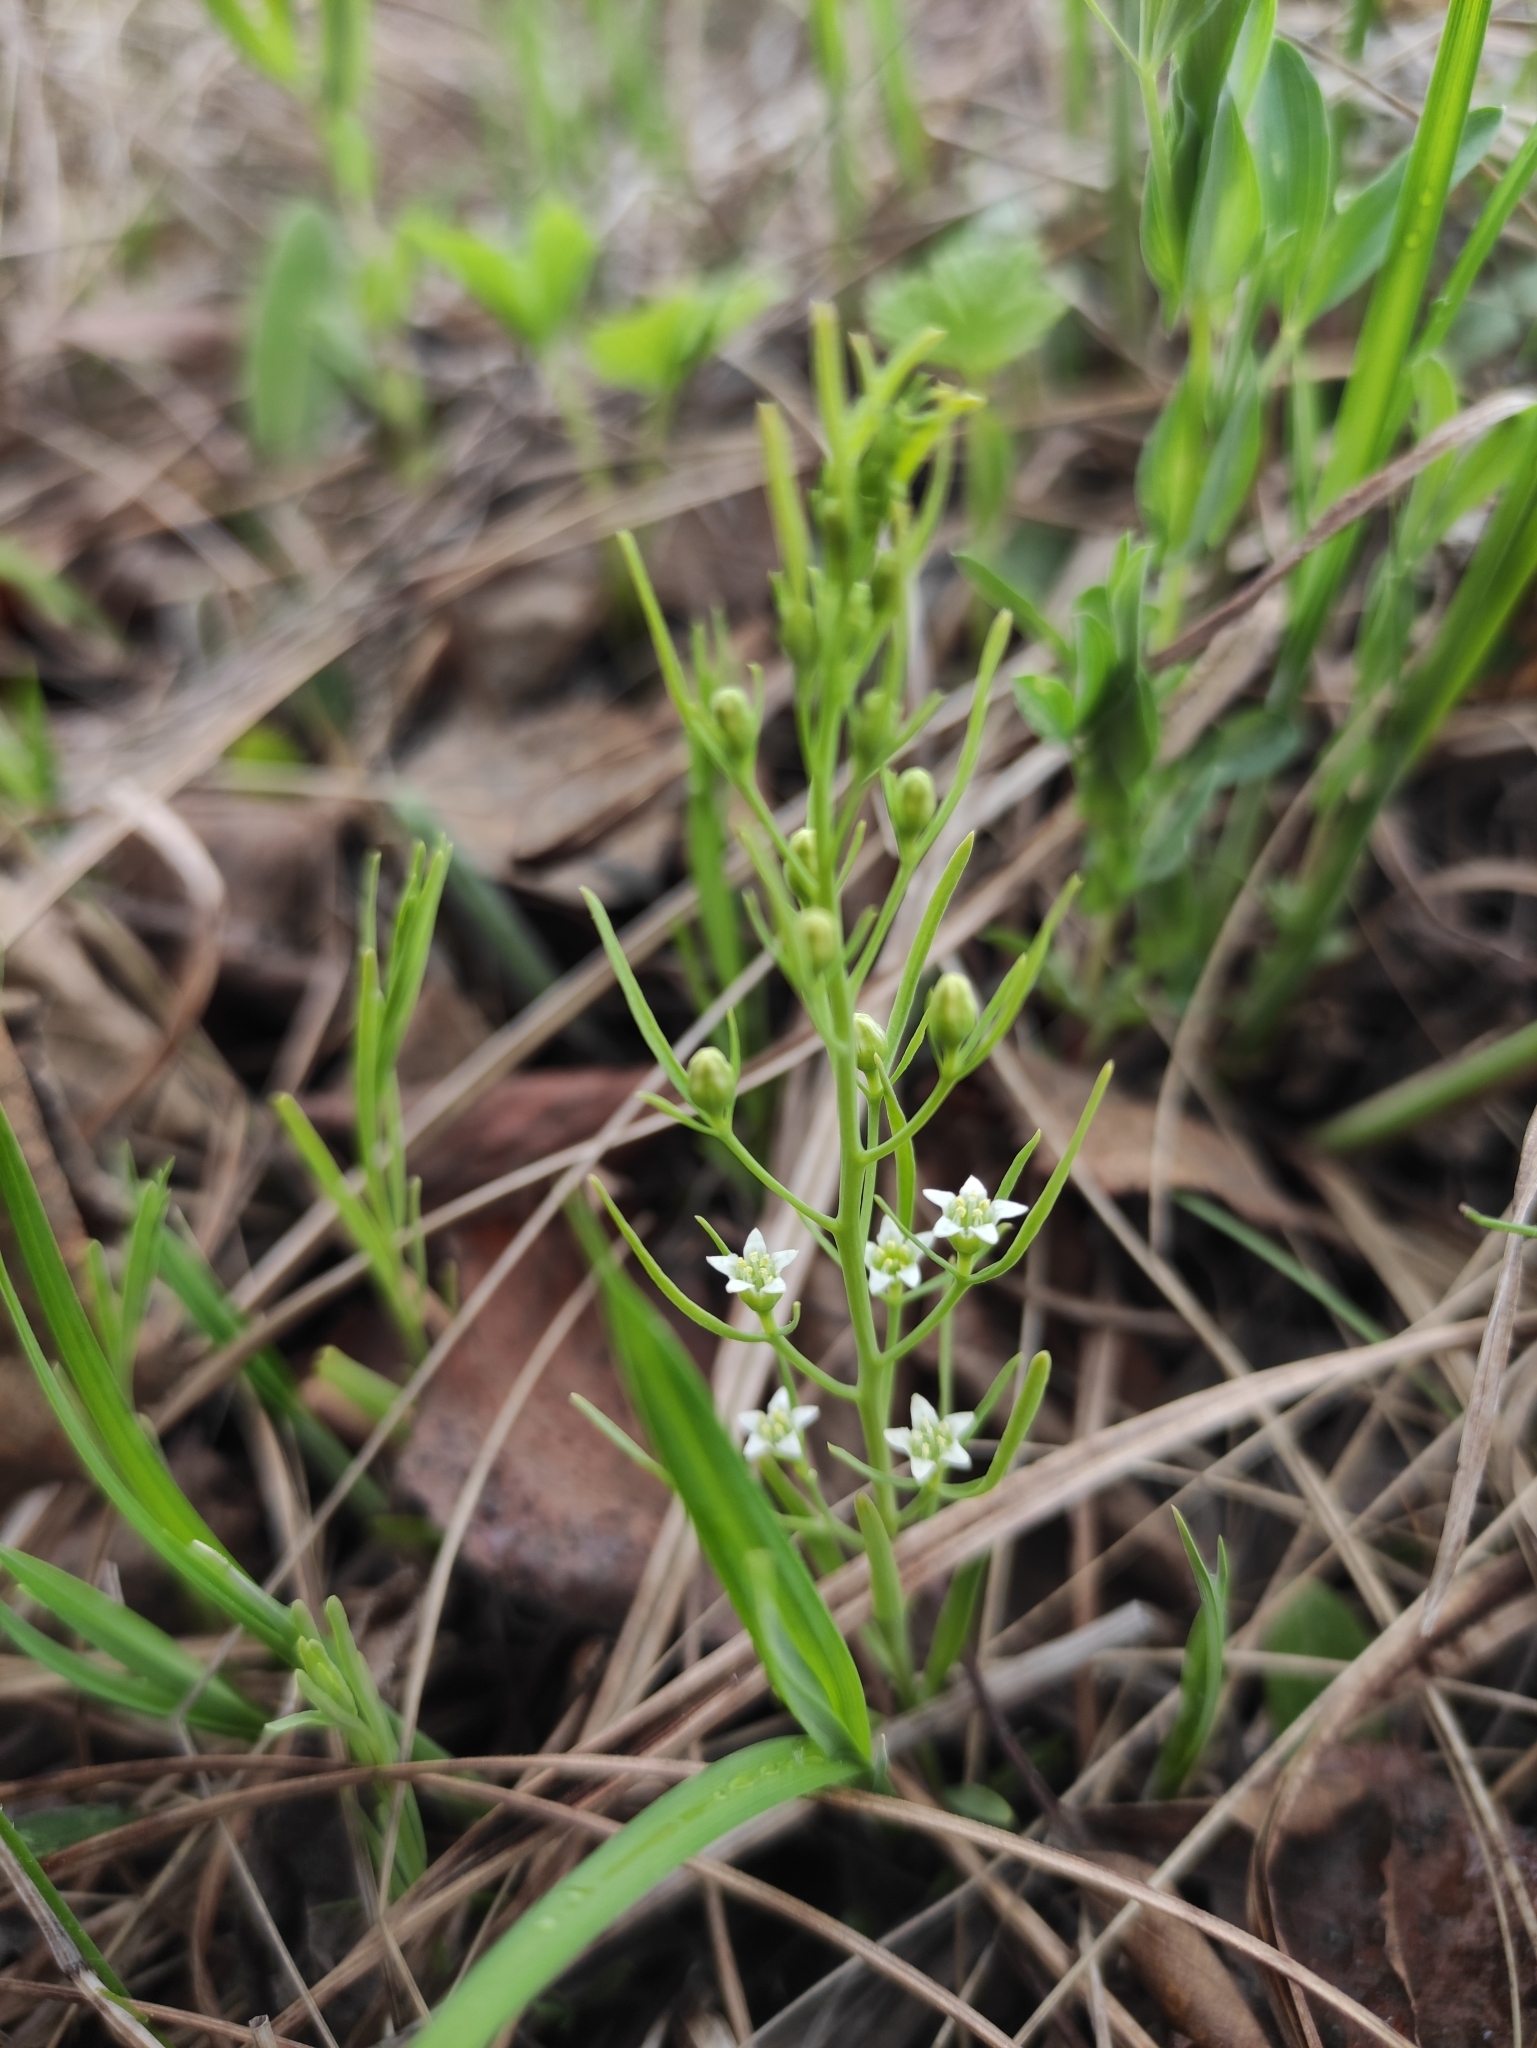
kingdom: Plantae
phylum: Tracheophyta
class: Magnoliopsida
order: Santalales
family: Thesiaceae
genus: Thesium
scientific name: Thesium repens
